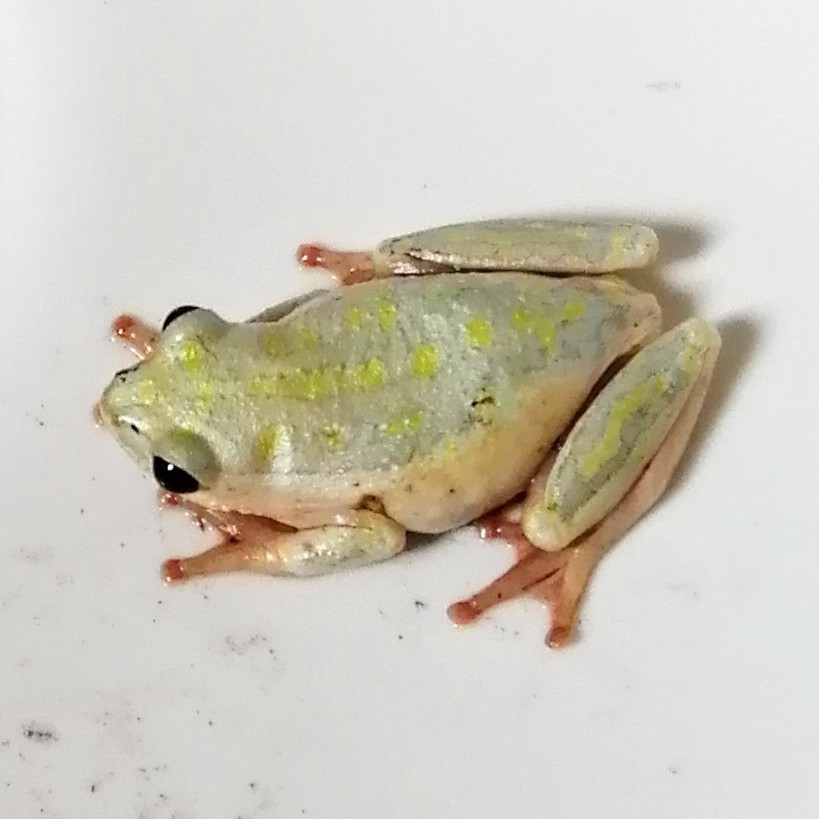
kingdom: Animalia
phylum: Chordata
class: Amphibia
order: Anura
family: Hyperoliidae
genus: Hyperolius
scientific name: Hyperolius marmoratus
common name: Painted reed frog
